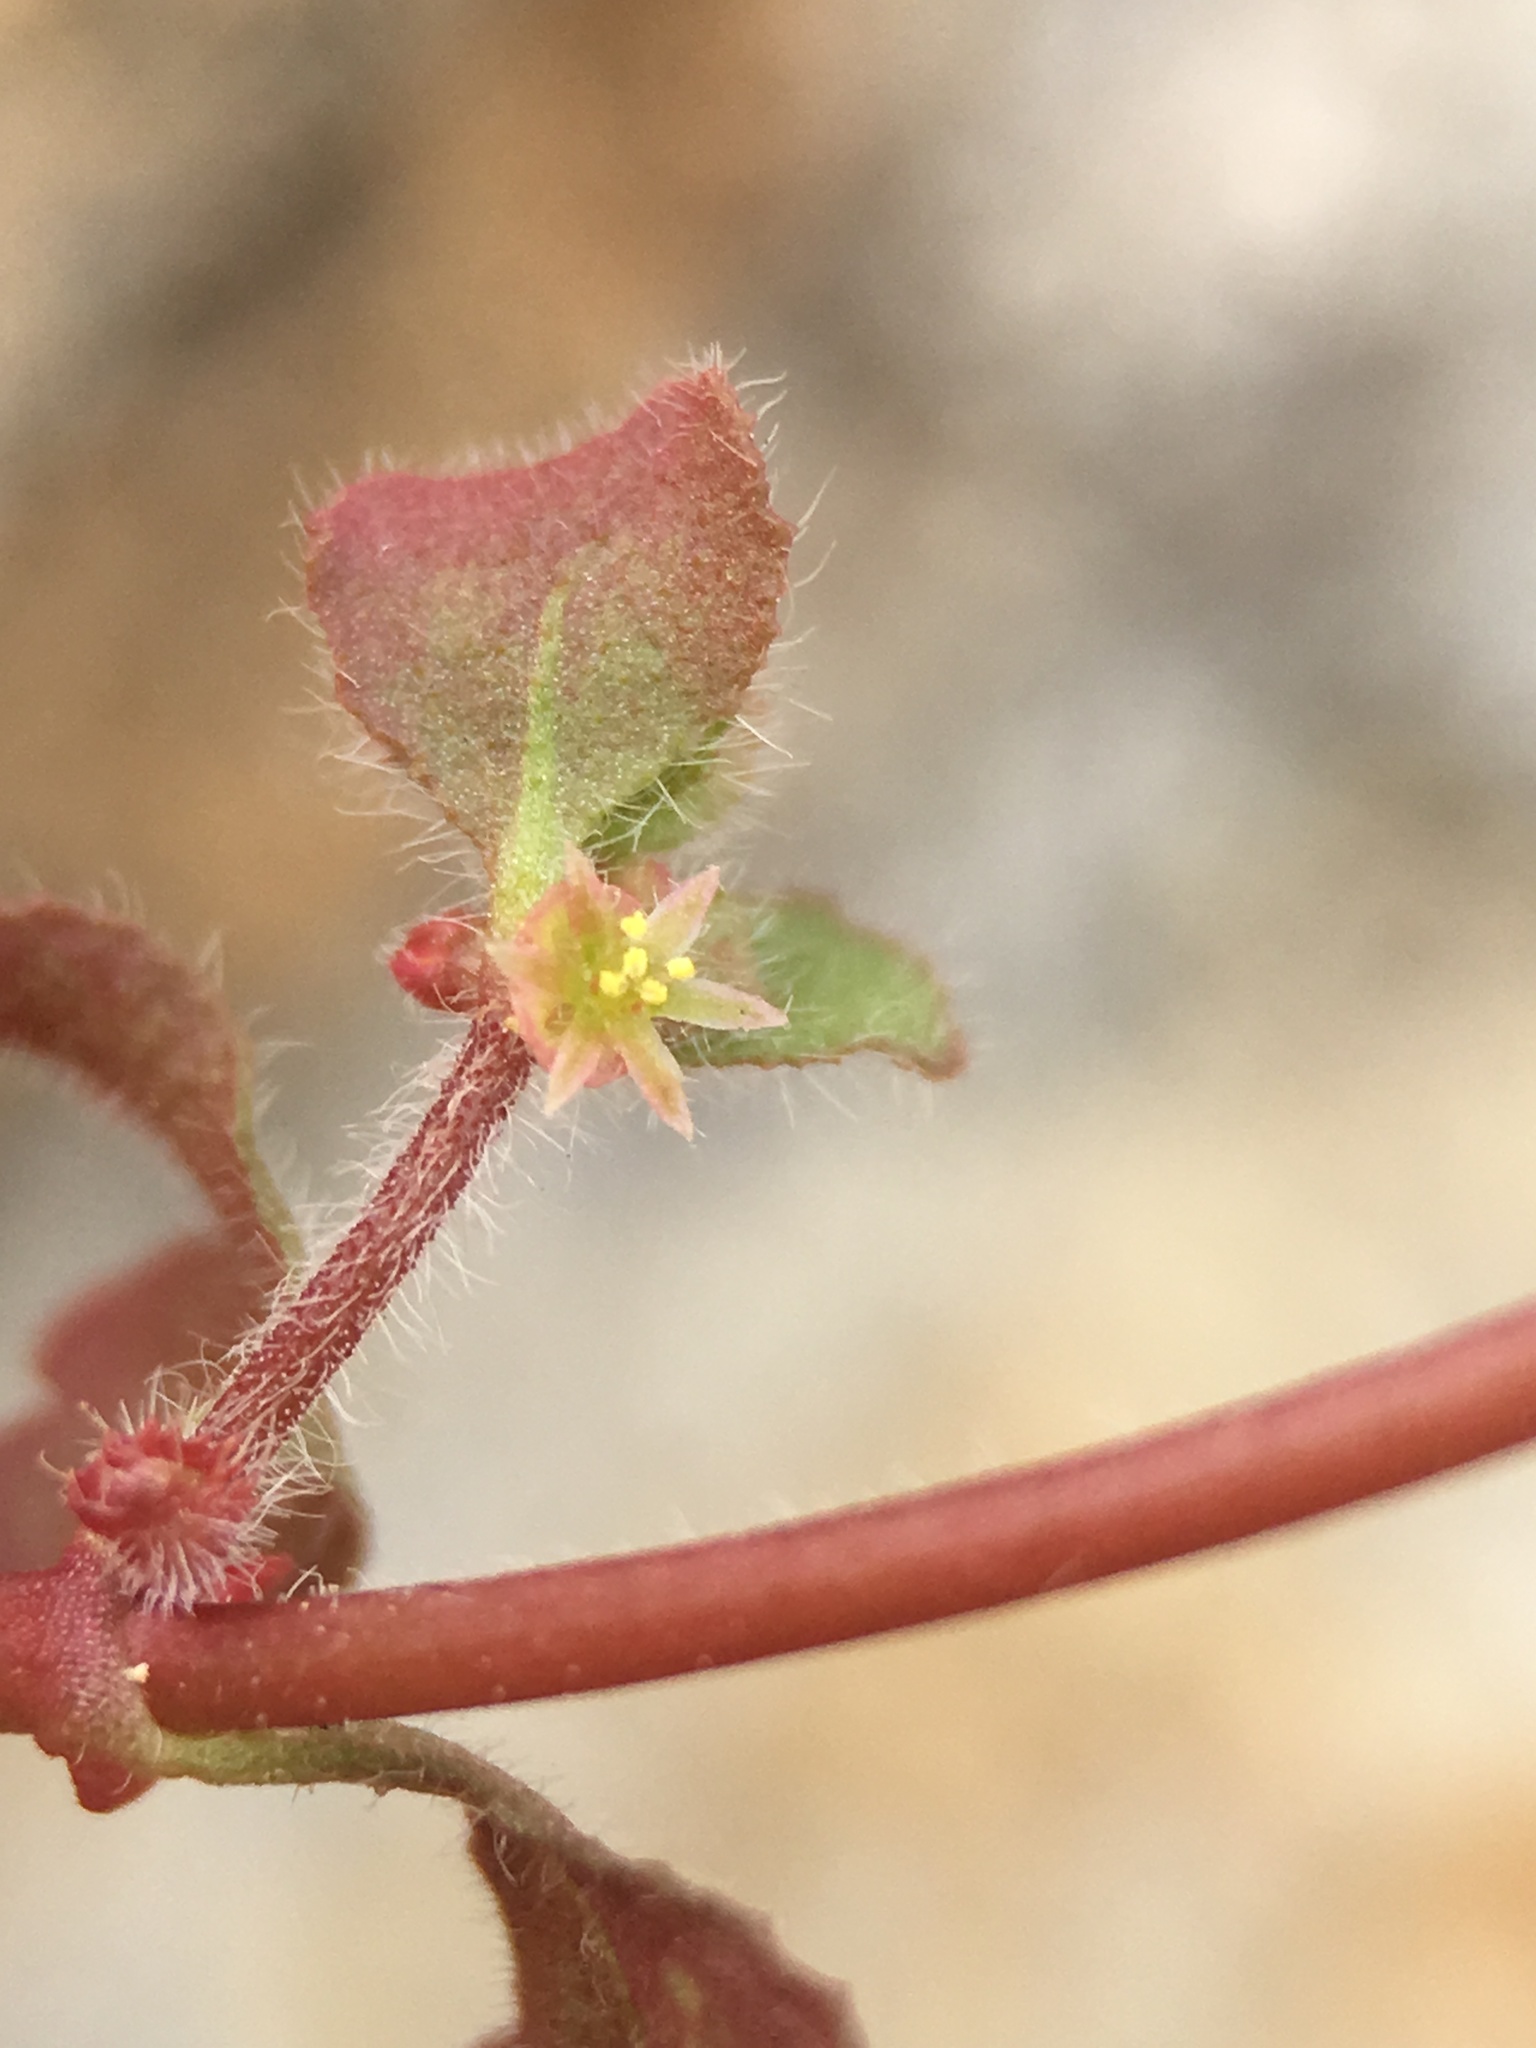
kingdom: Plantae
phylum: Tracheophyta
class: Magnoliopsida
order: Caryophyllales
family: Polygonaceae
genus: Pterostegia
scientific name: Pterostegia drymarioides
